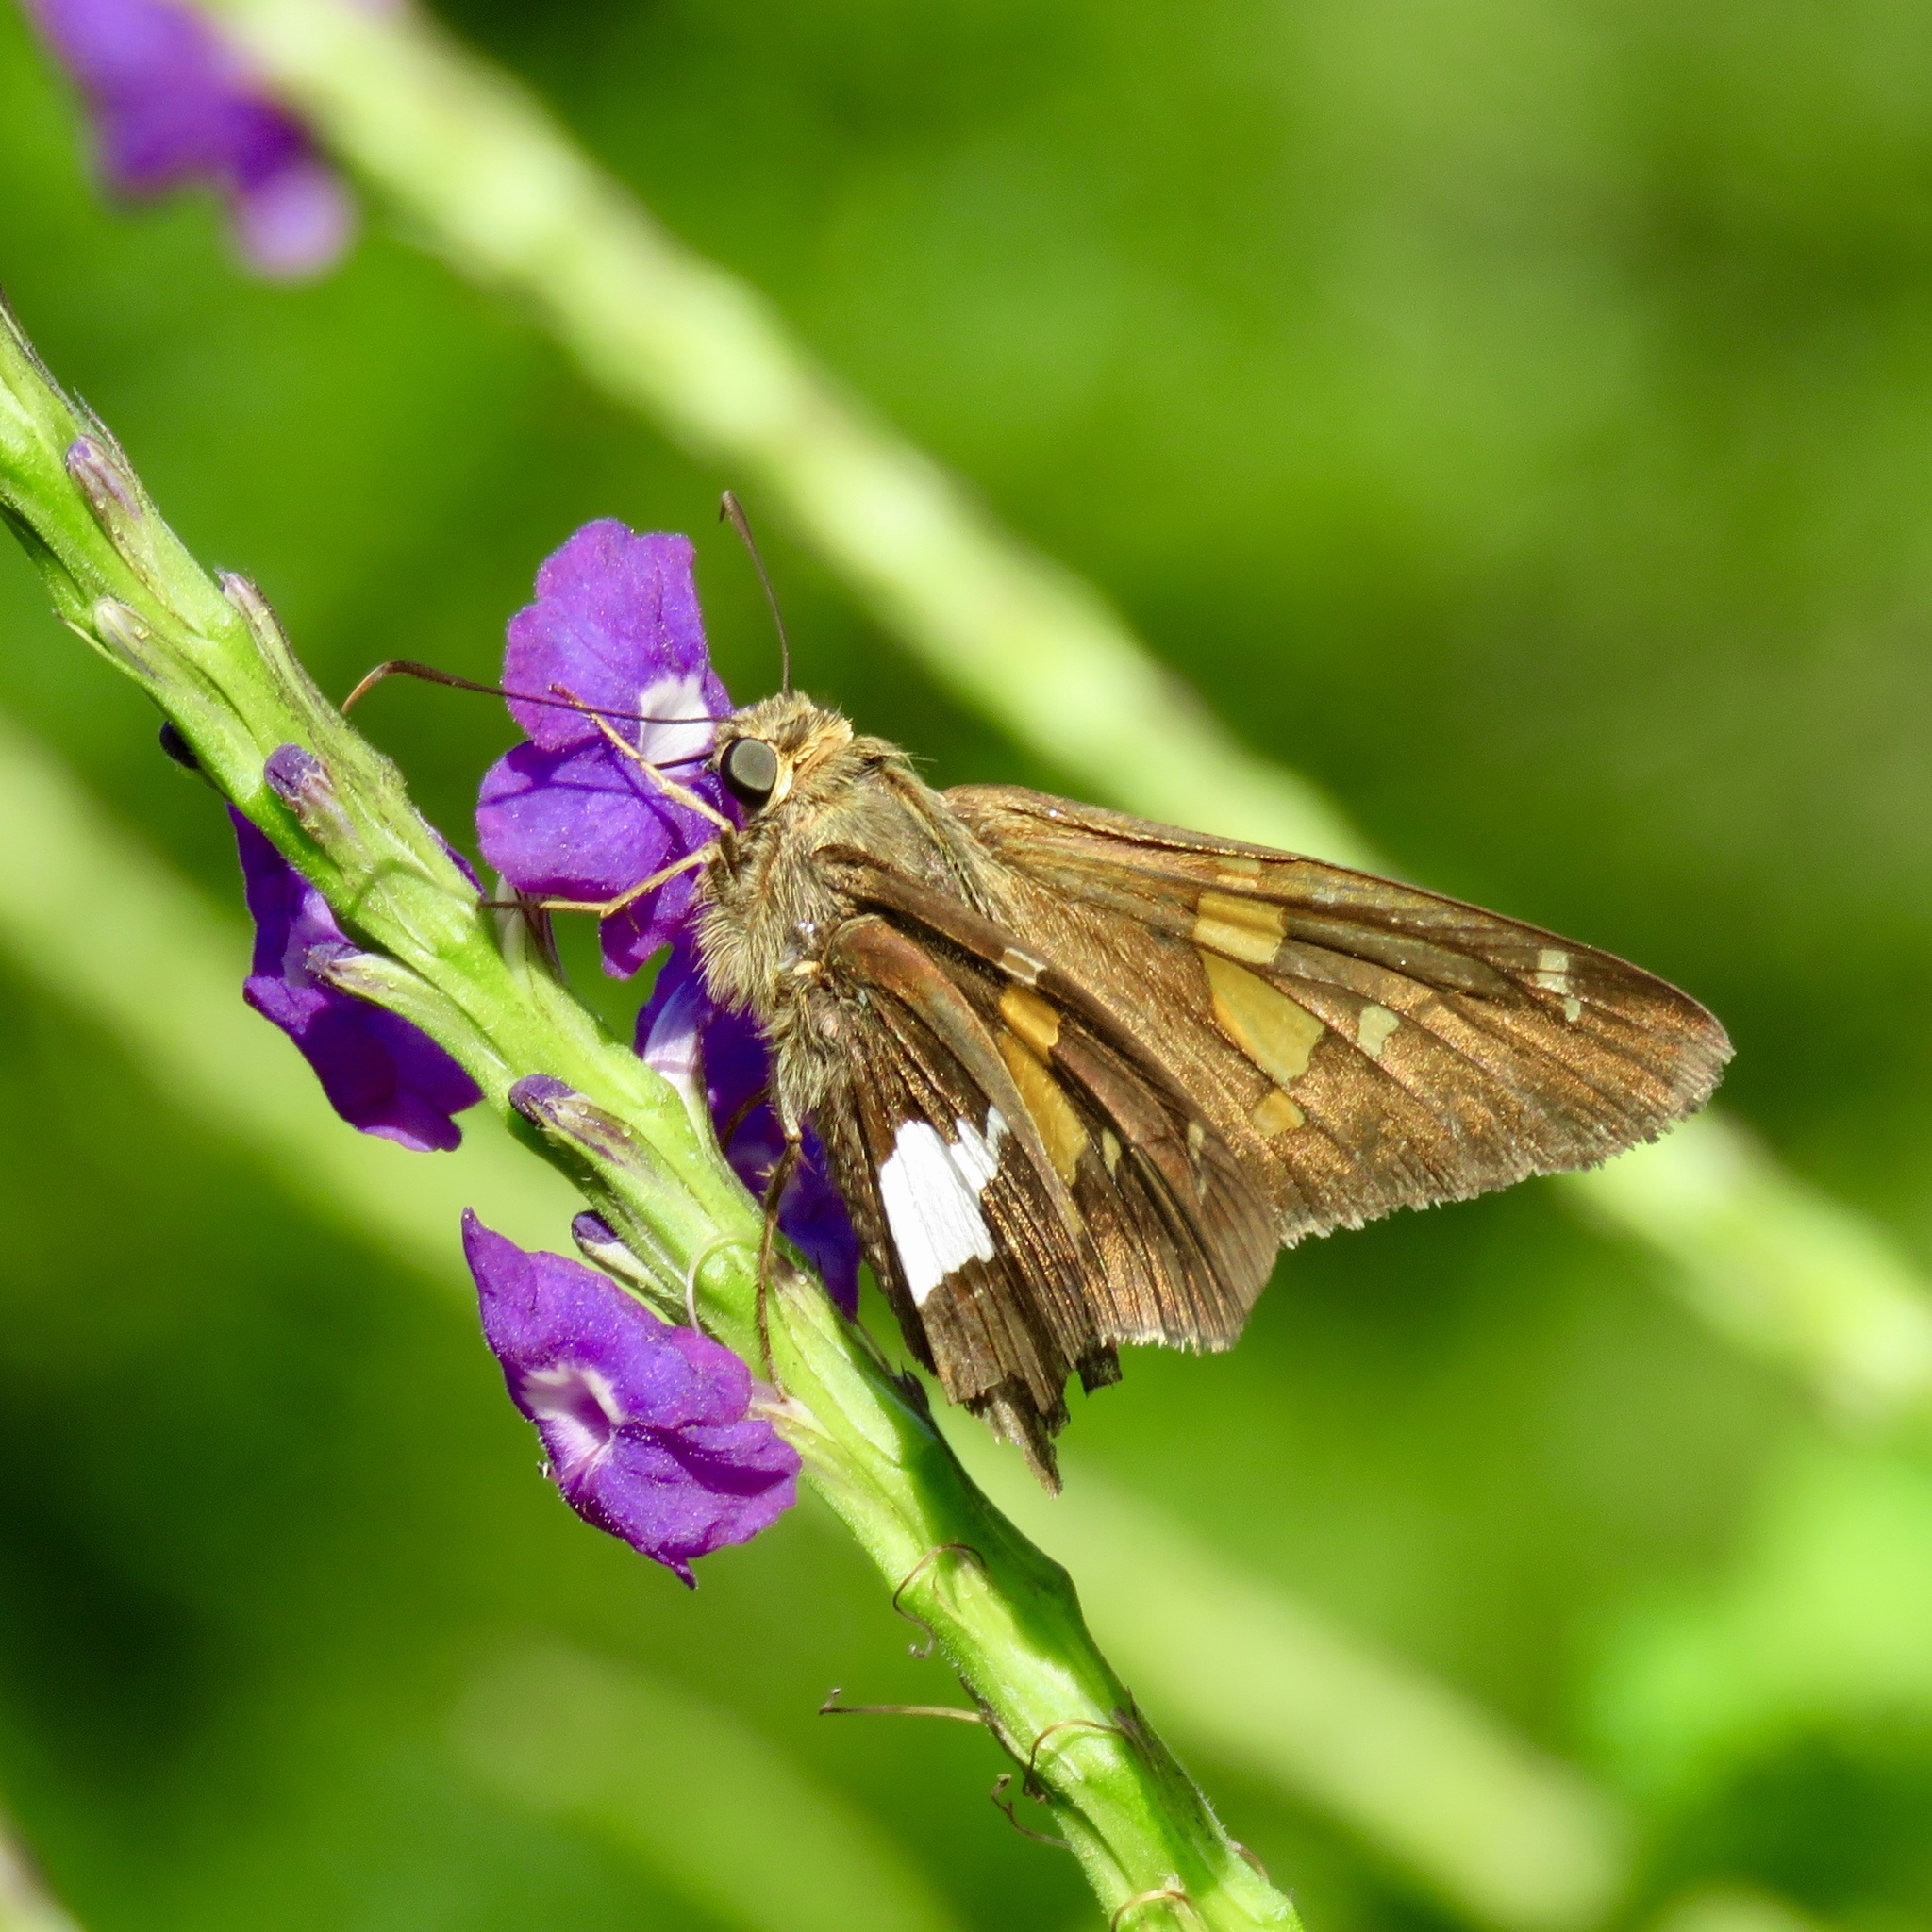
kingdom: Animalia
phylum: Arthropoda
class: Insecta
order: Lepidoptera
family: Hesperiidae
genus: Epargyreus
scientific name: Epargyreus clarus
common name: Silver-spotted skipper
